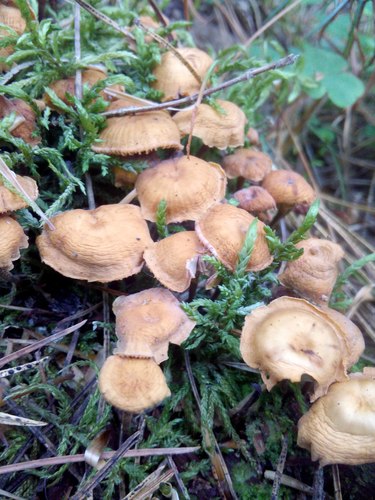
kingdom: Fungi
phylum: Basidiomycota
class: Agaricomycetes
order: Agaricales
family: Tubariaceae
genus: Tubaria
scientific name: Tubaria furfuracea
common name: Scurfy twiglet
